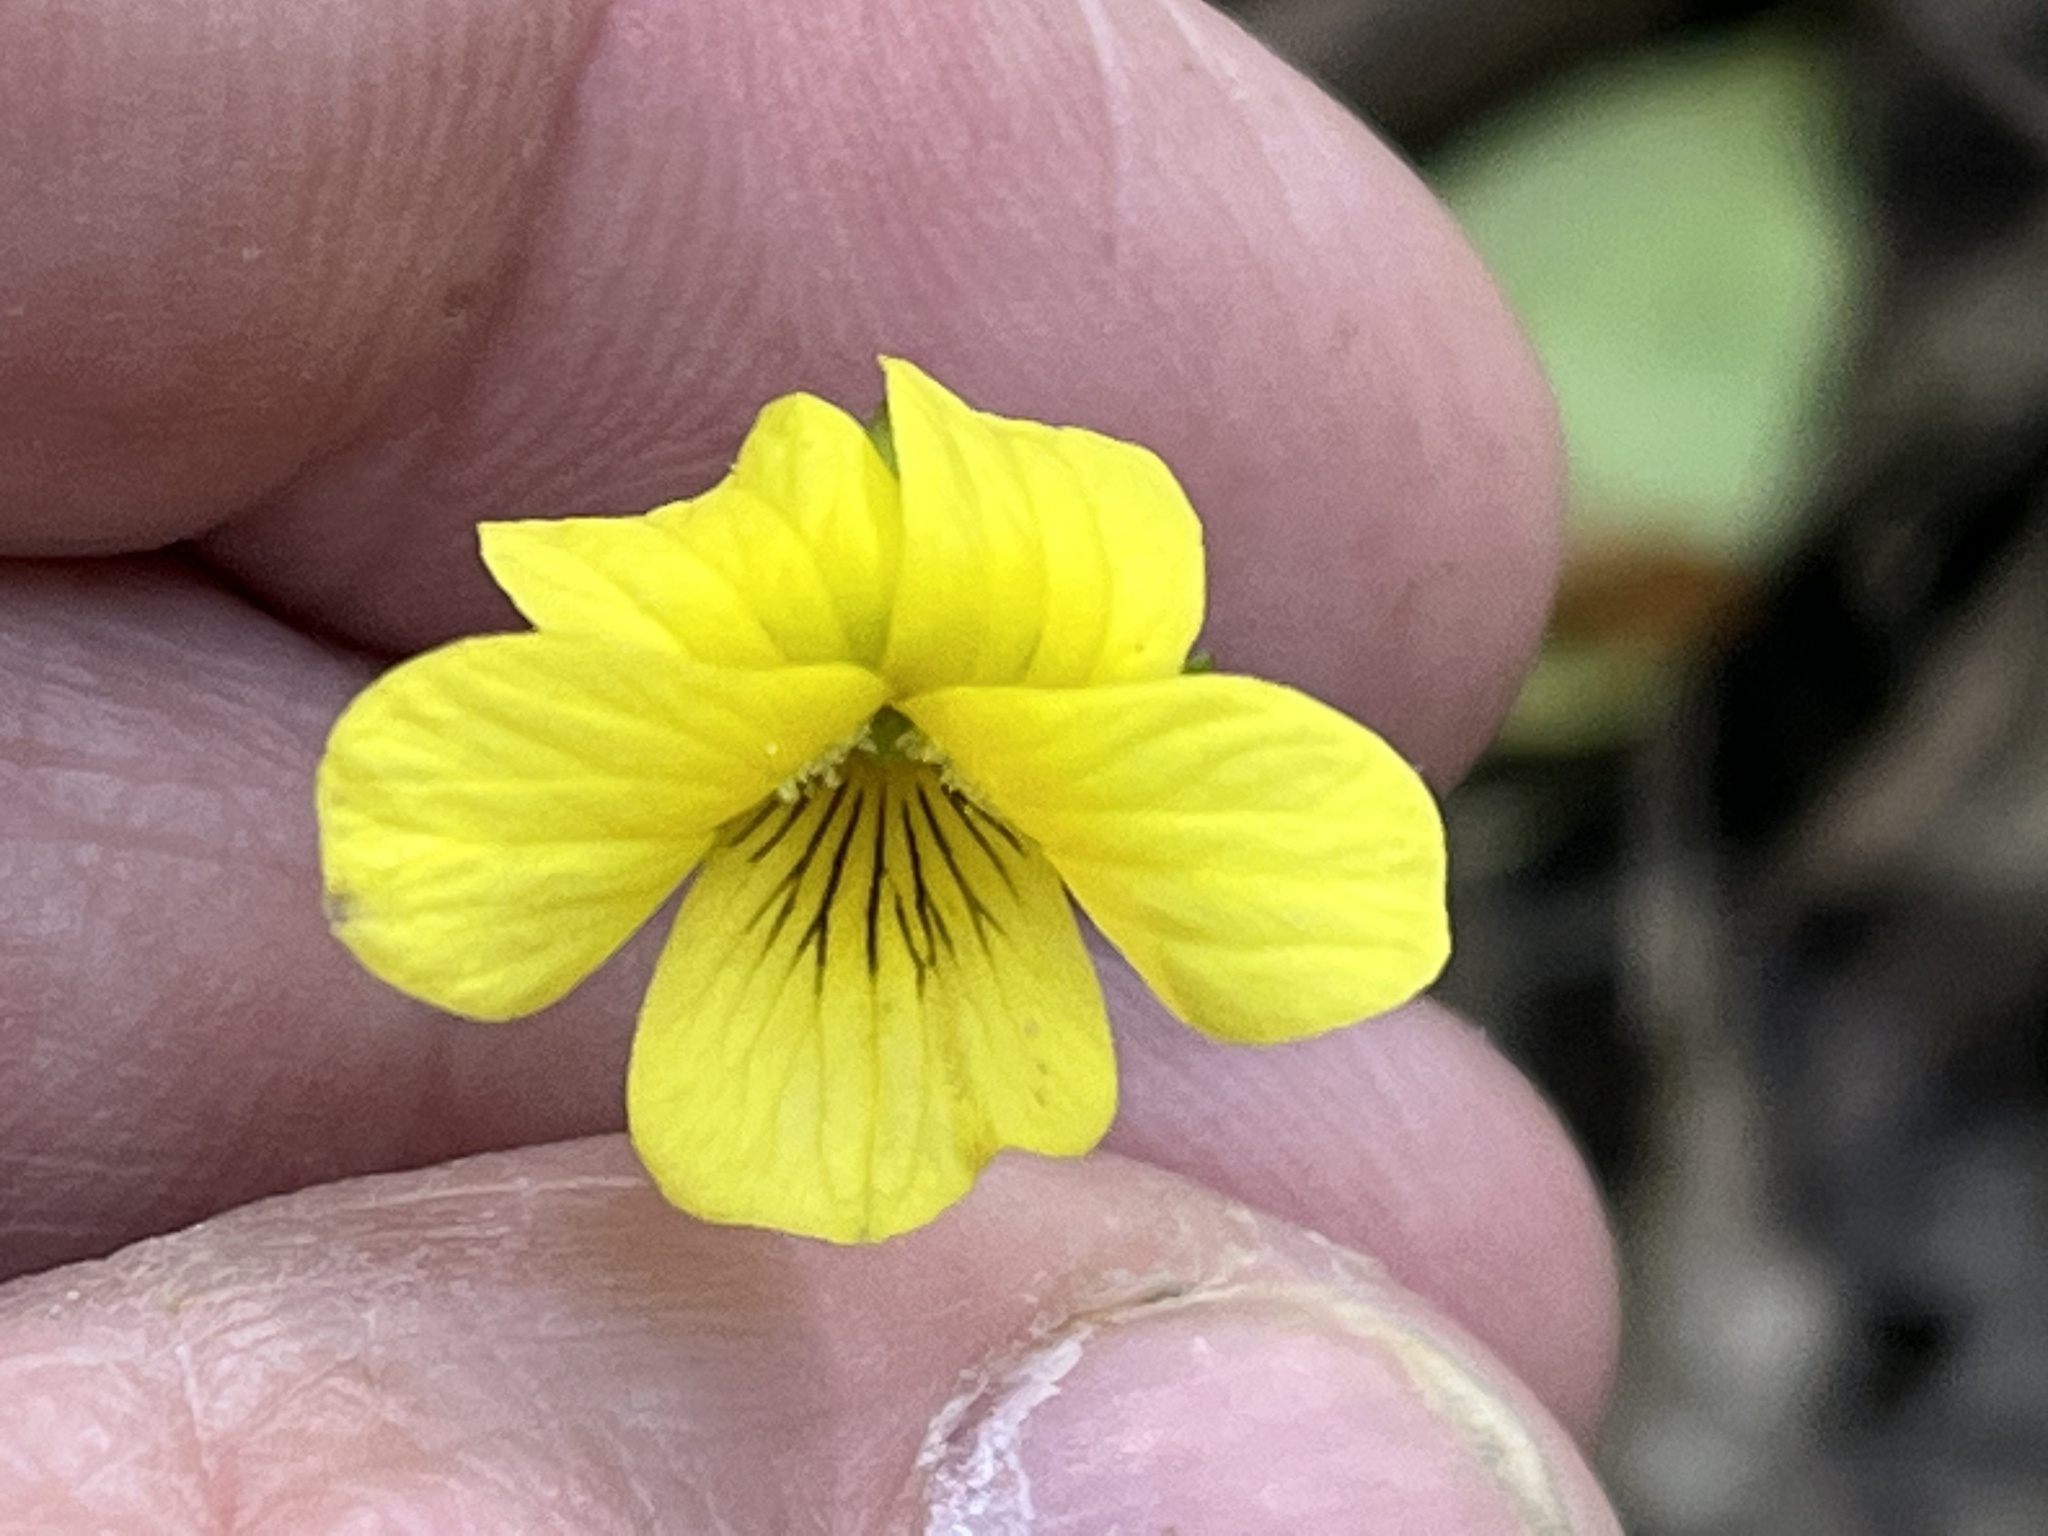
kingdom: Plantae
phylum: Tracheophyta
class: Magnoliopsida
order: Malpighiales
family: Violaceae
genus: Viola
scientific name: Viola eriocarpa
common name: Smooth yellow violet
